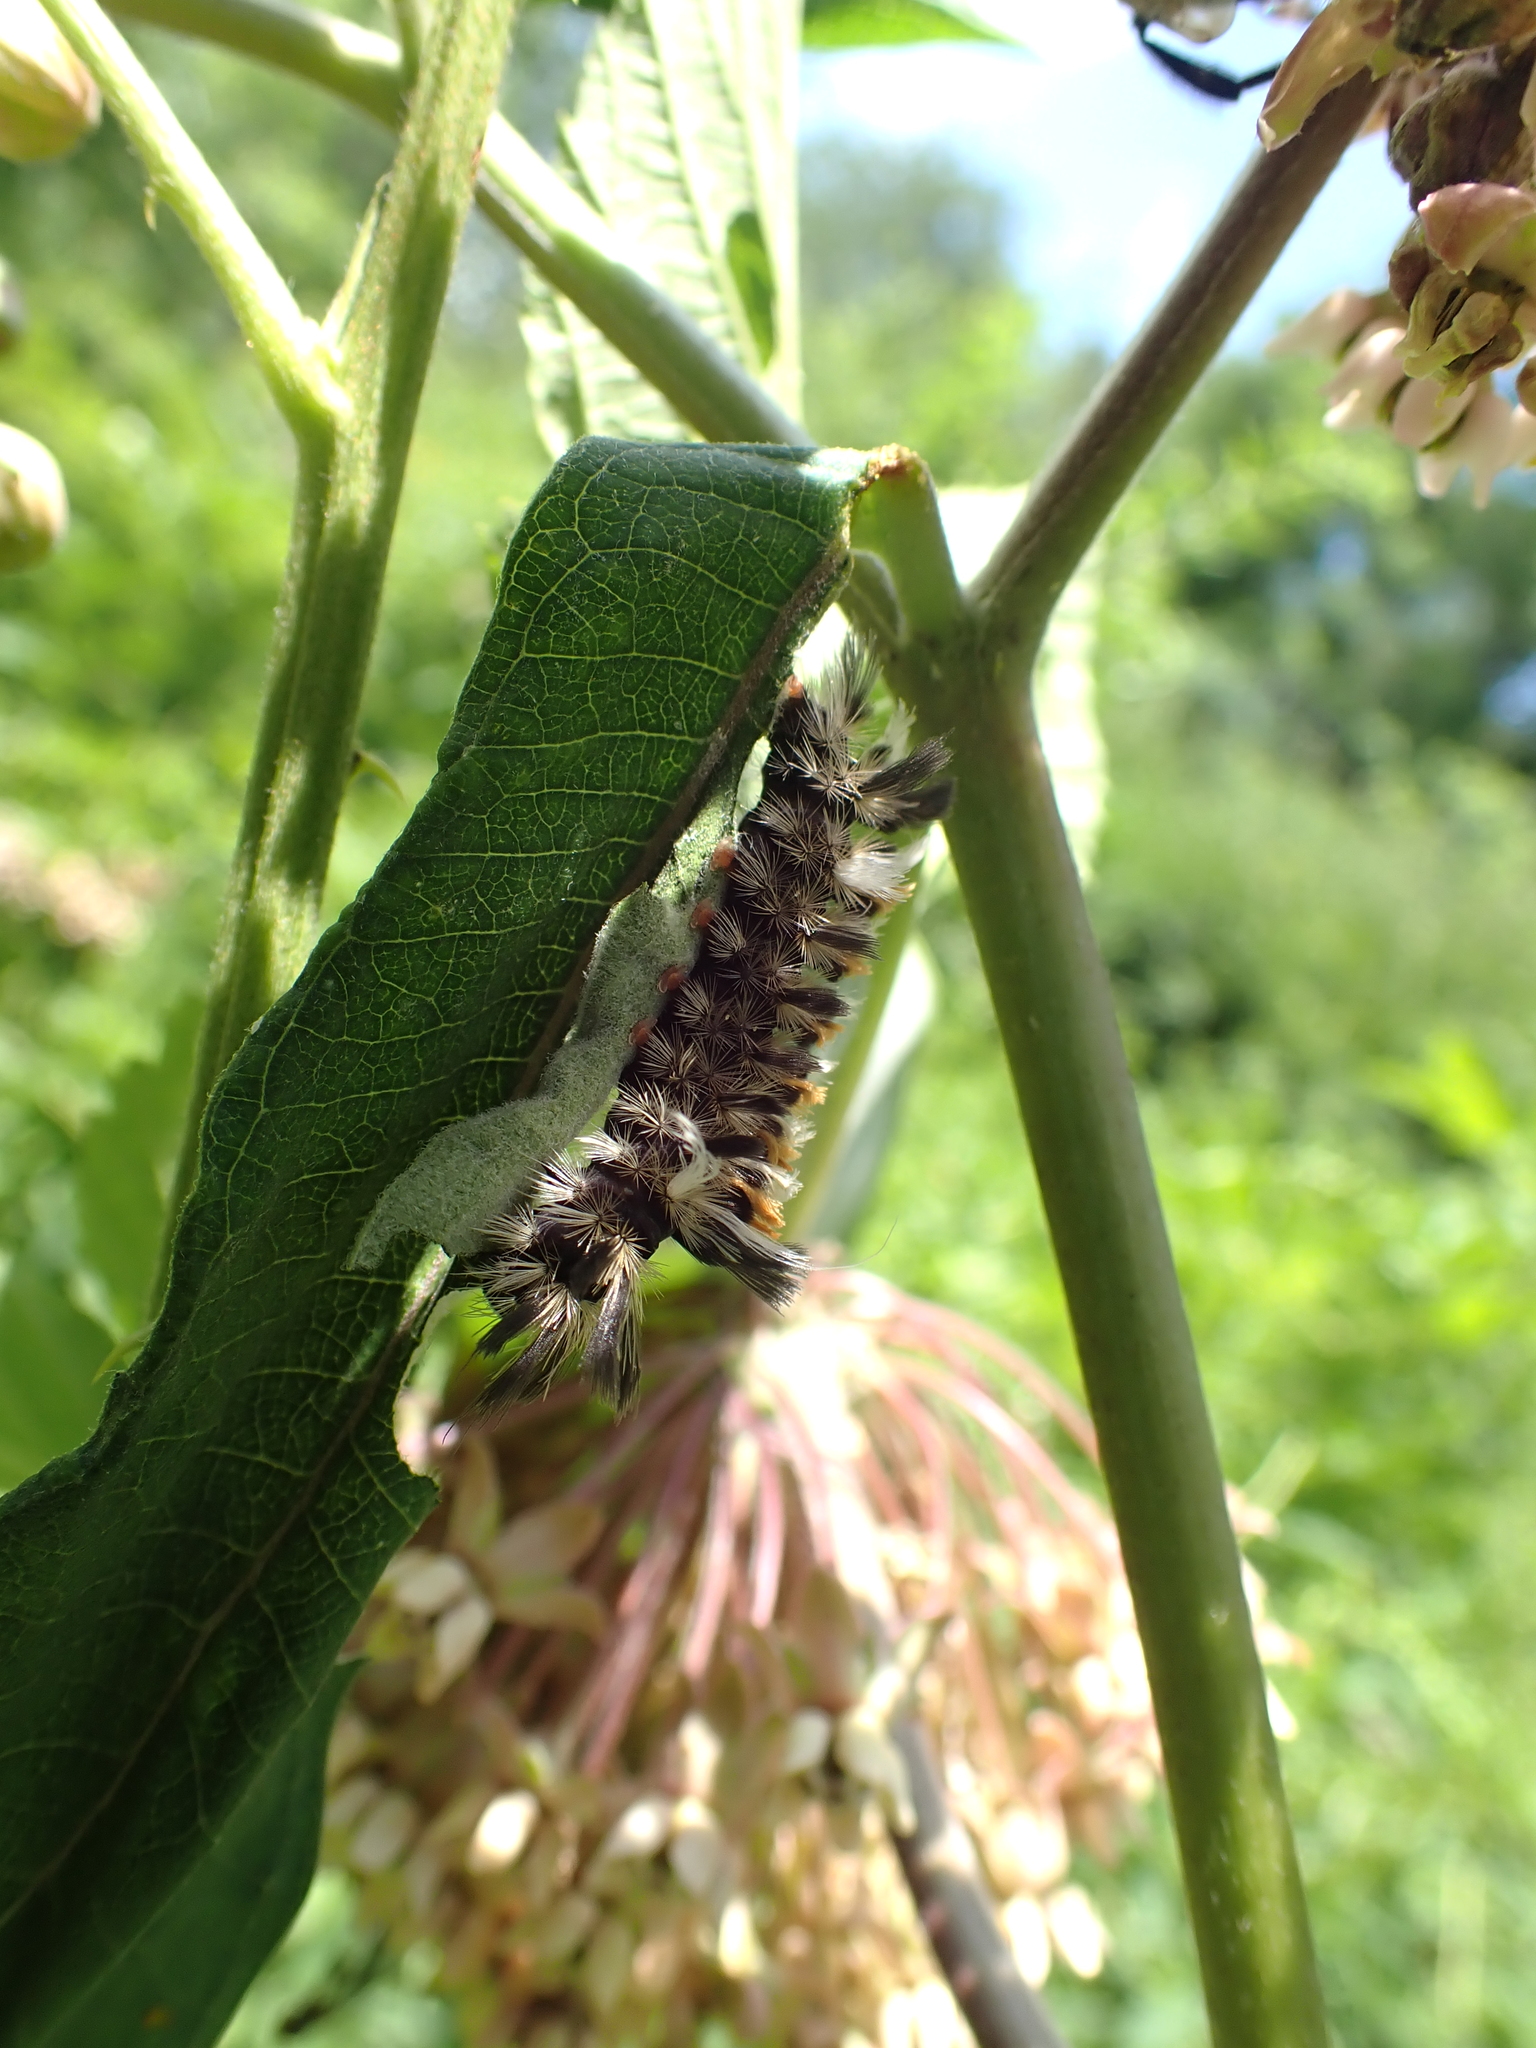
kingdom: Animalia
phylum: Arthropoda
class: Insecta
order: Lepidoptera
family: Erebidae
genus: Euchaetes
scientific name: Euchaetes egle
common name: Milkweed tussock moth
